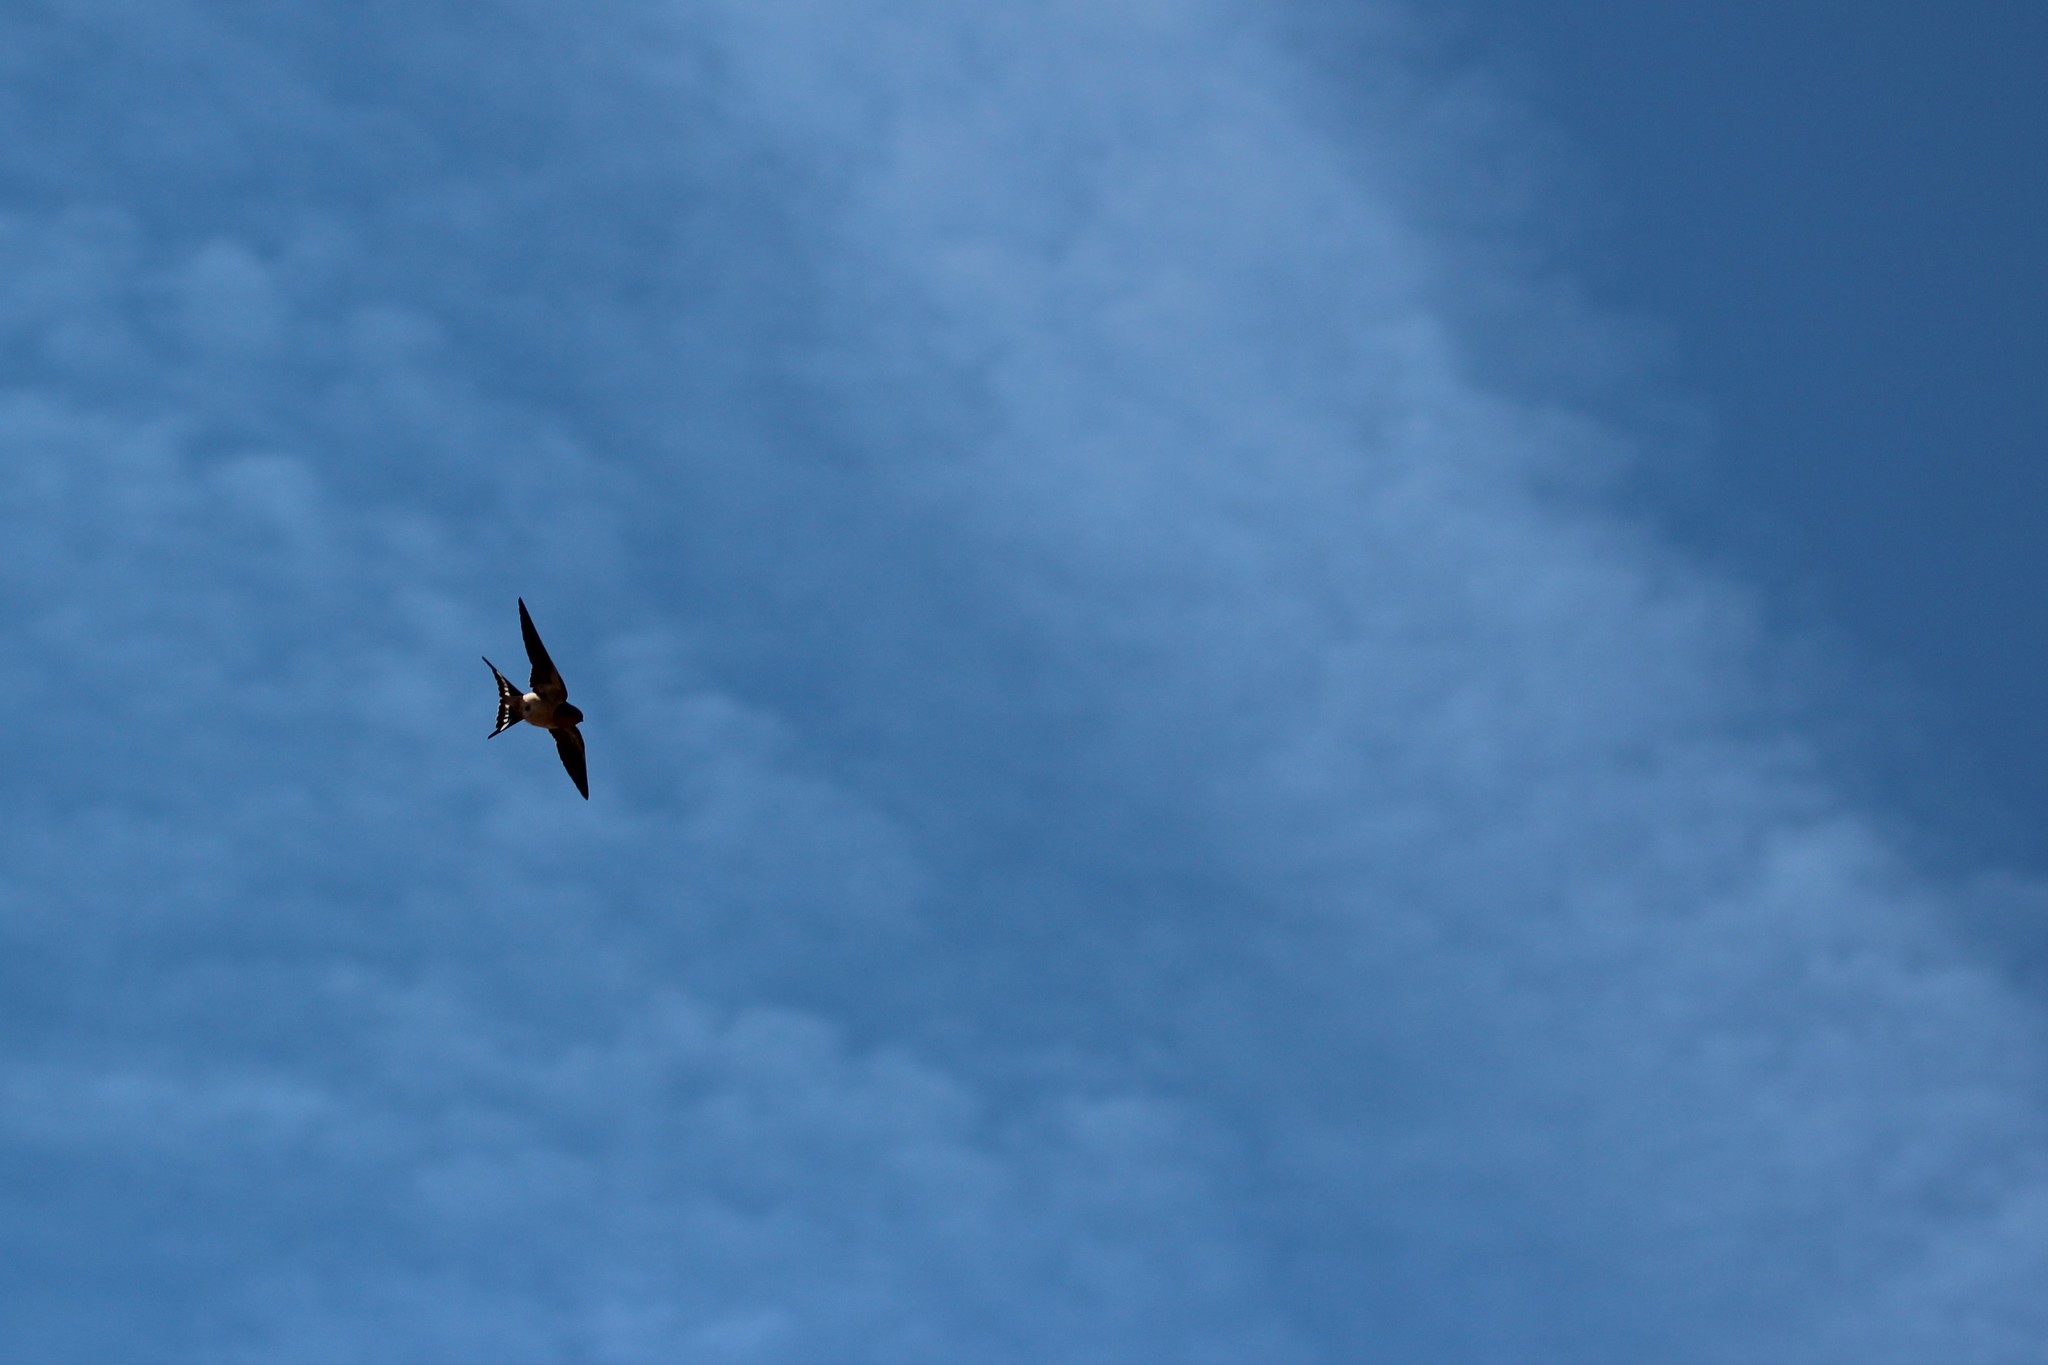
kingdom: Animalia
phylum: Chordata
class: Aves
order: Passeriformes
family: Hirundinidae
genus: Hirundo
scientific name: Hirundo rustica
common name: Barn swallow
